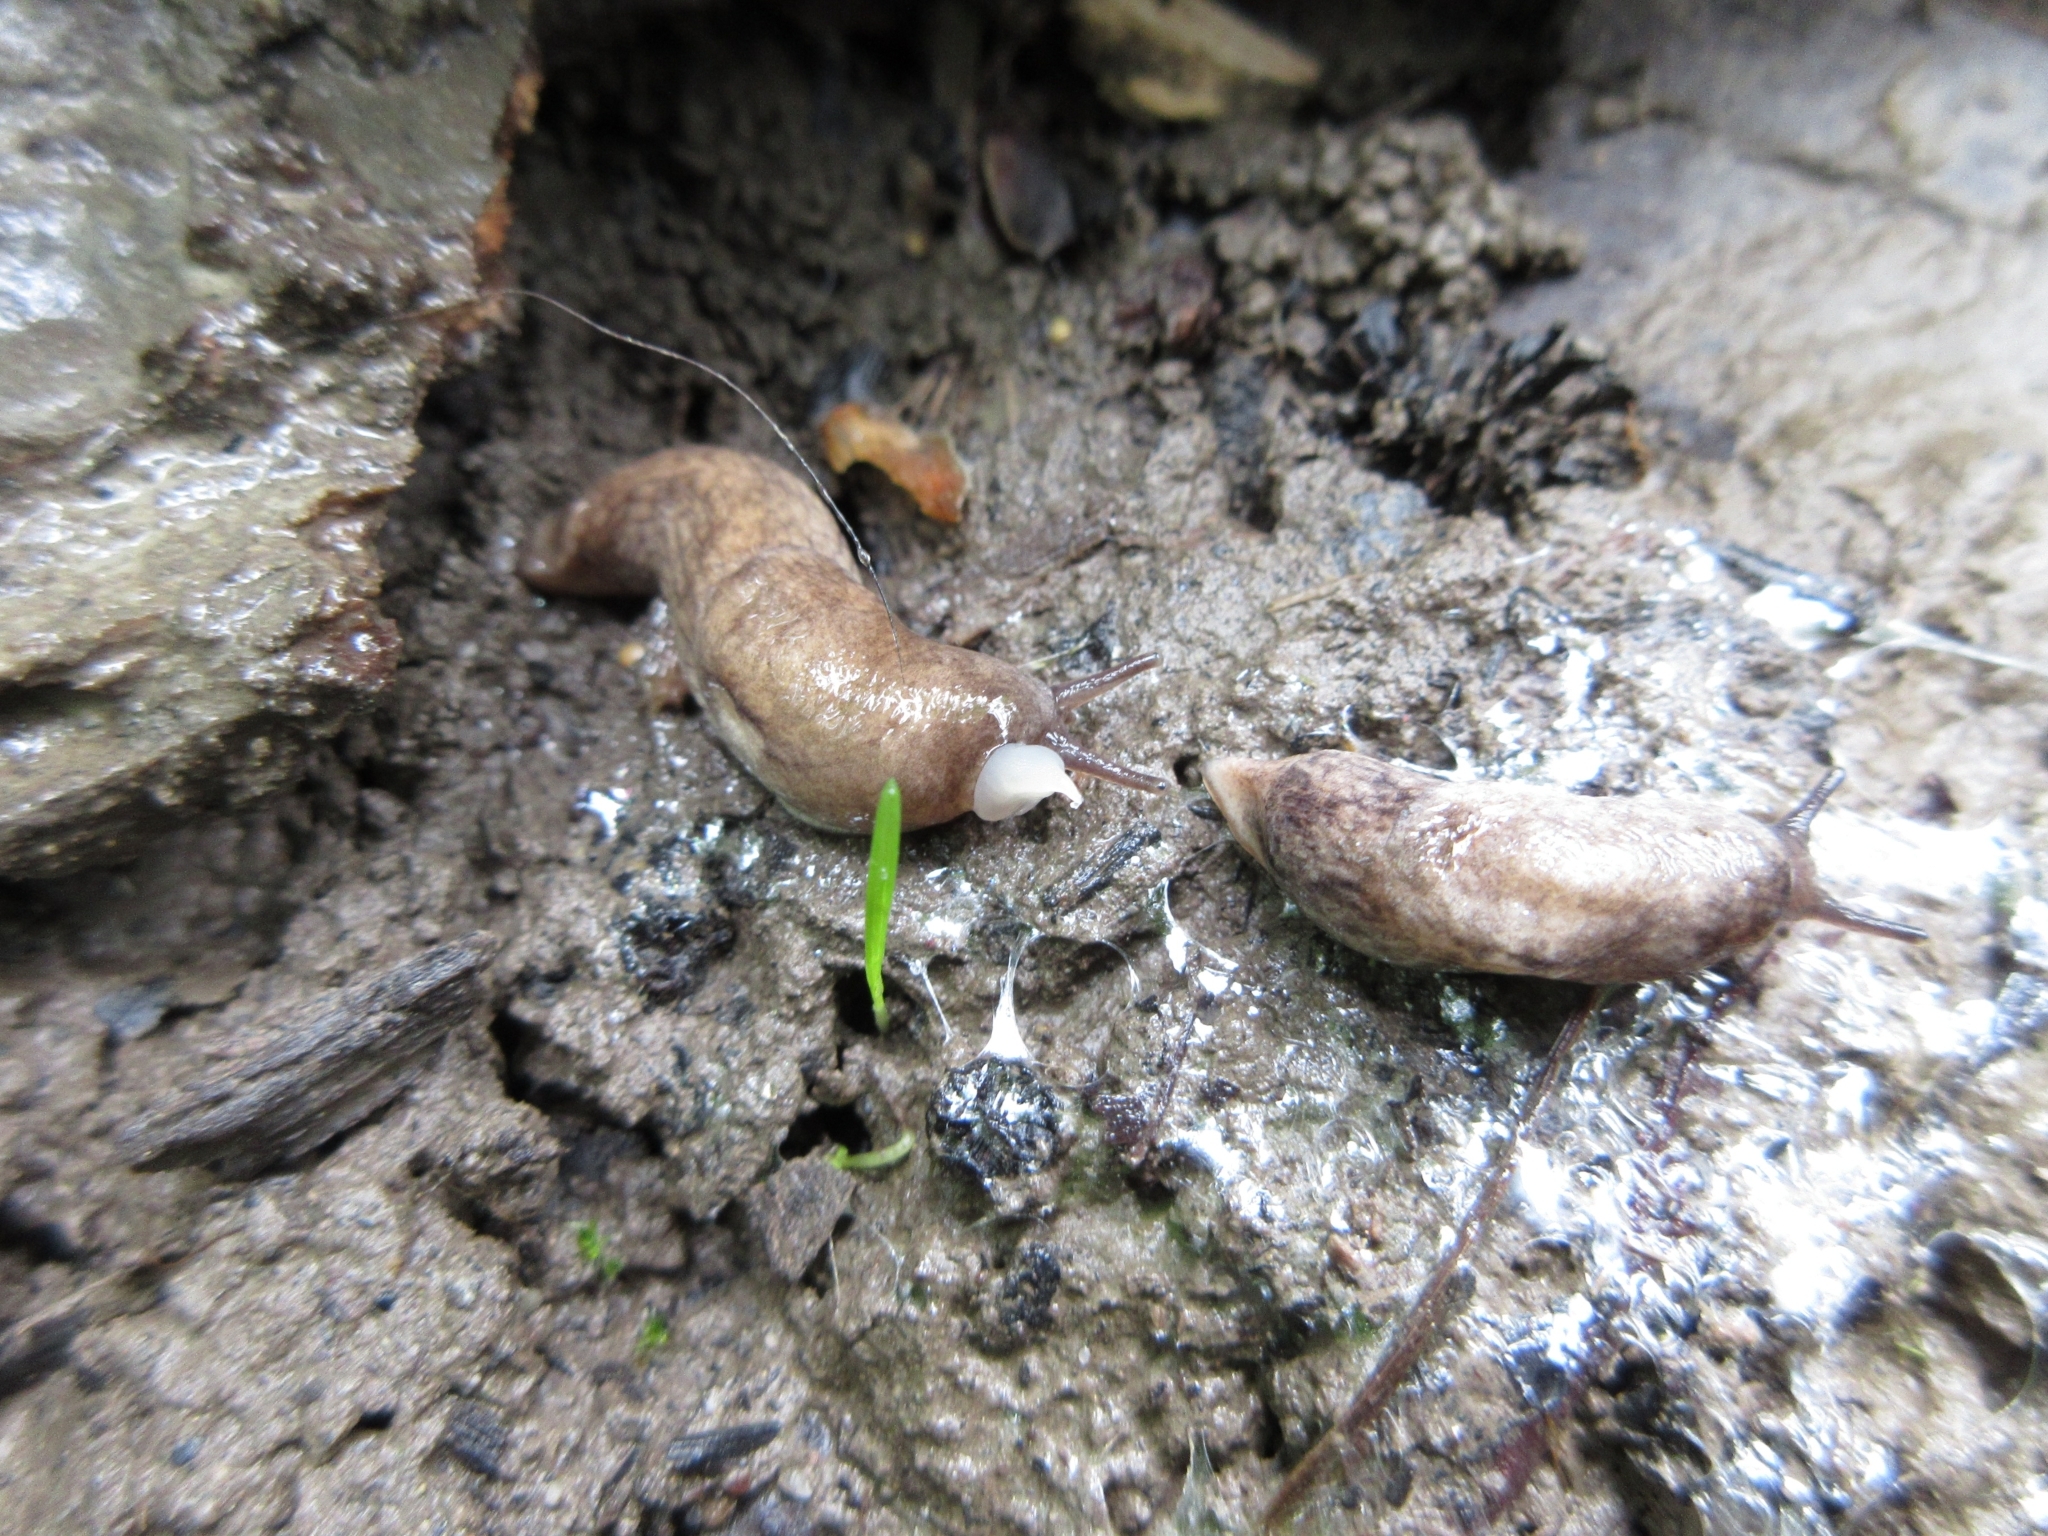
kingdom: Animalia
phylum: Mollusca
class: Gastropoda
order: Stylommatophora
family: Agriolimacidae
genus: Deroceras
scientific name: Deroceras reticulatum
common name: Gray field slug
